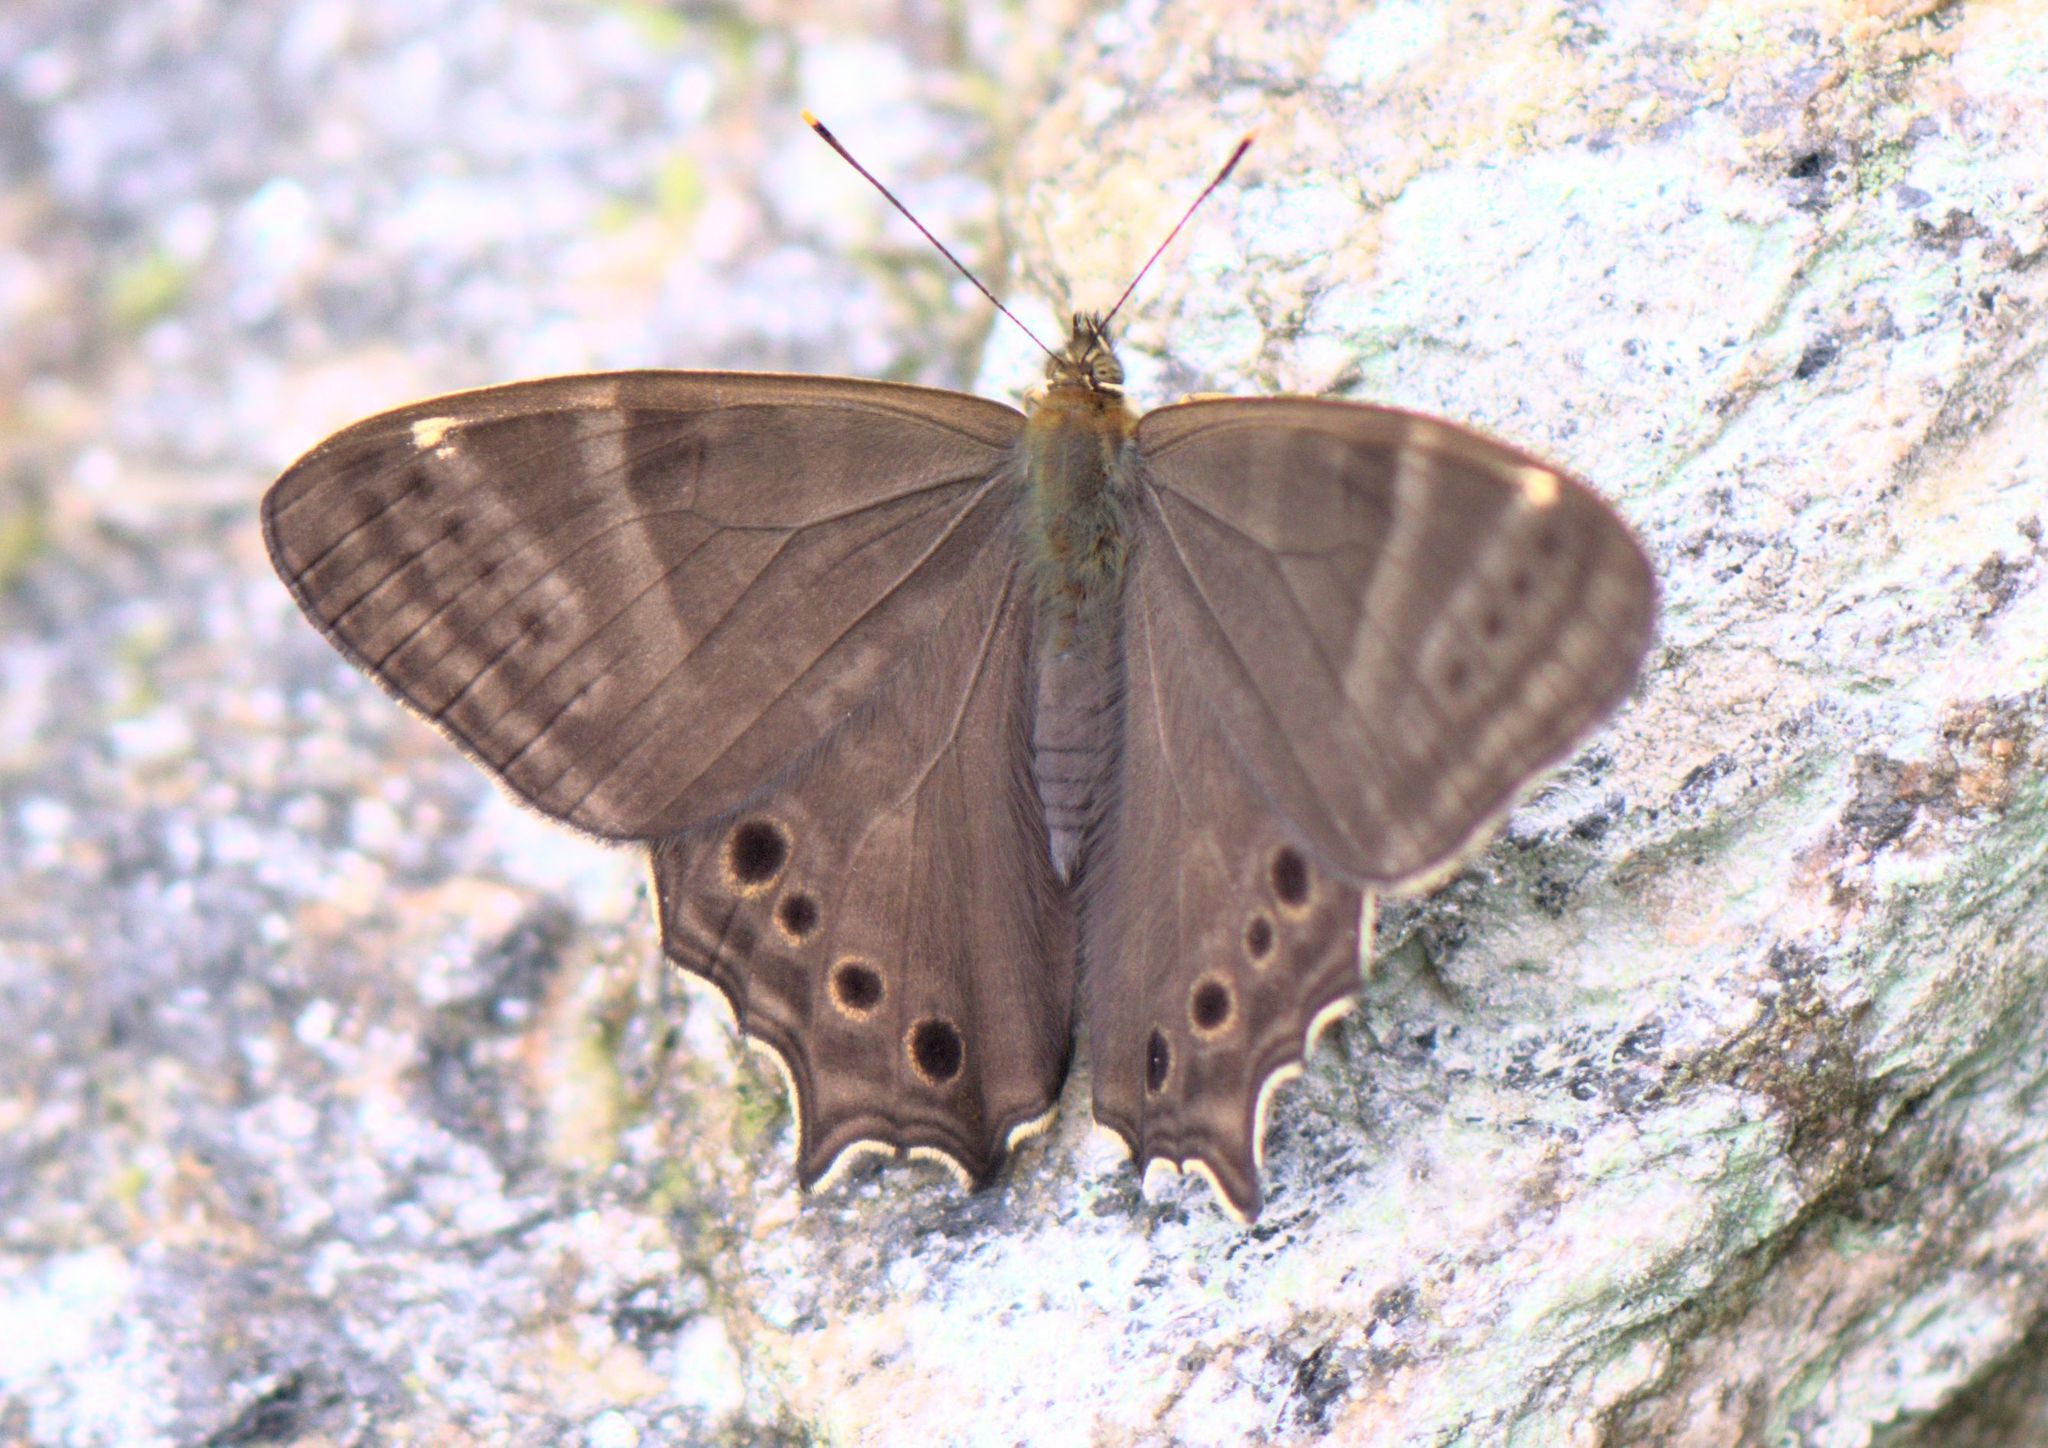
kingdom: Animalia
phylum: Arthropoda
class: Insecta
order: Lepidoptera
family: Nymphalidae
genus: Lethe
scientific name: Lethe baladeva
